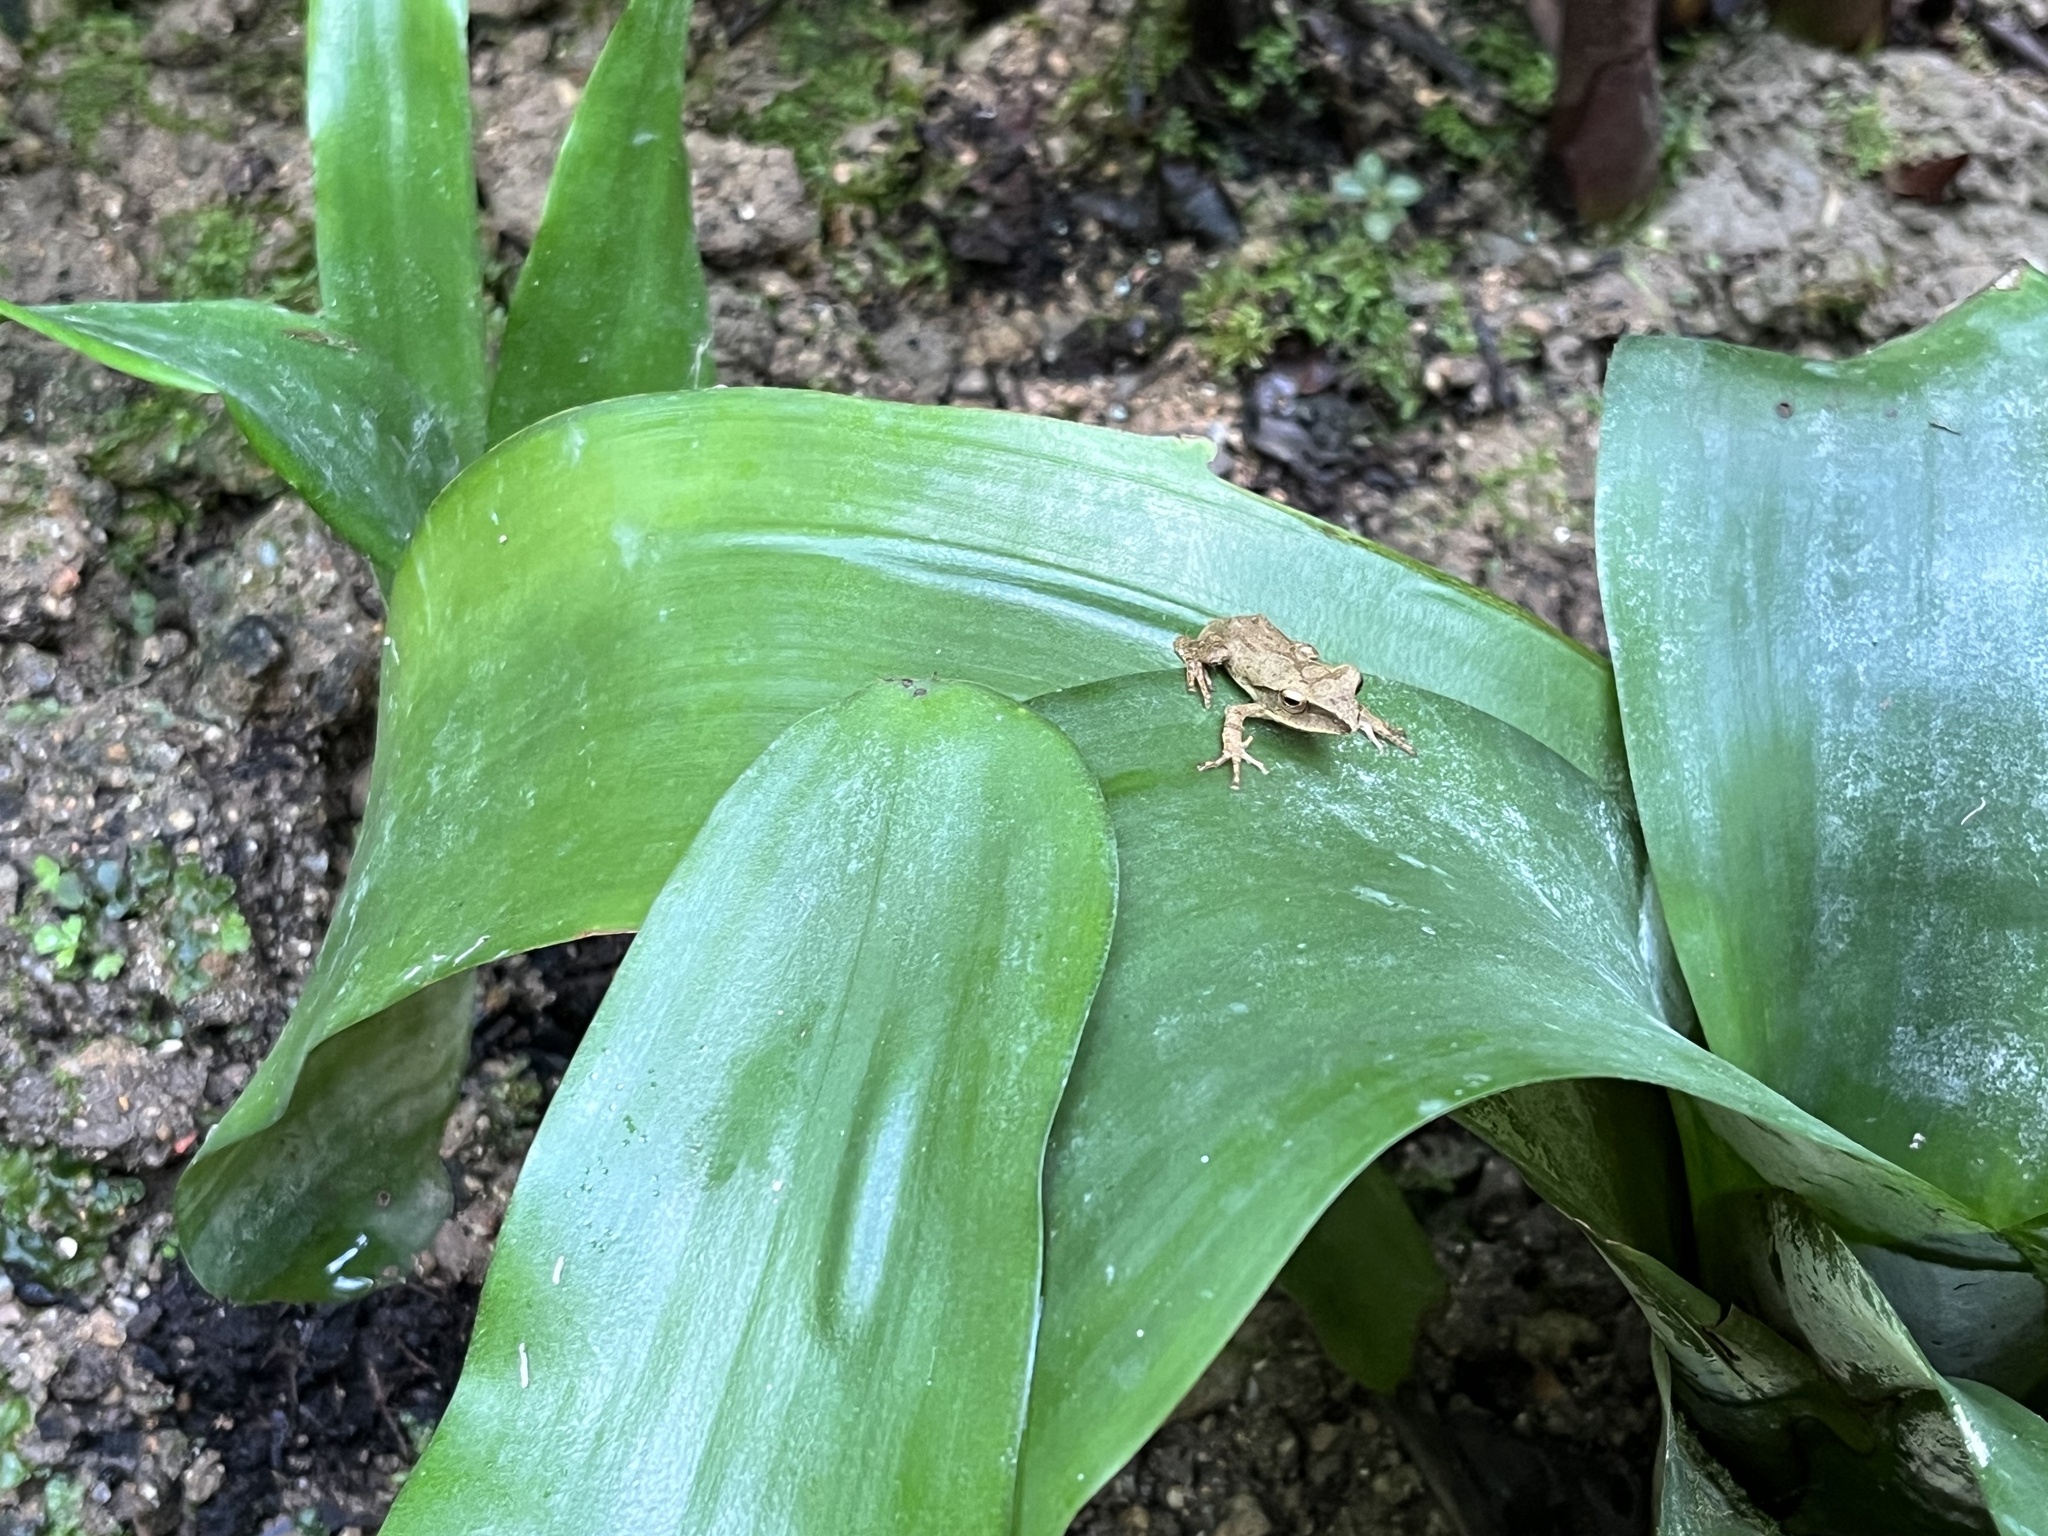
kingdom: Animalia
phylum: Chordata
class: Amphibia
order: Anura
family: Rhacophoridae
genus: Polypedates
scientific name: Polypedates megacephalus
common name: Hong kong whipping frog
